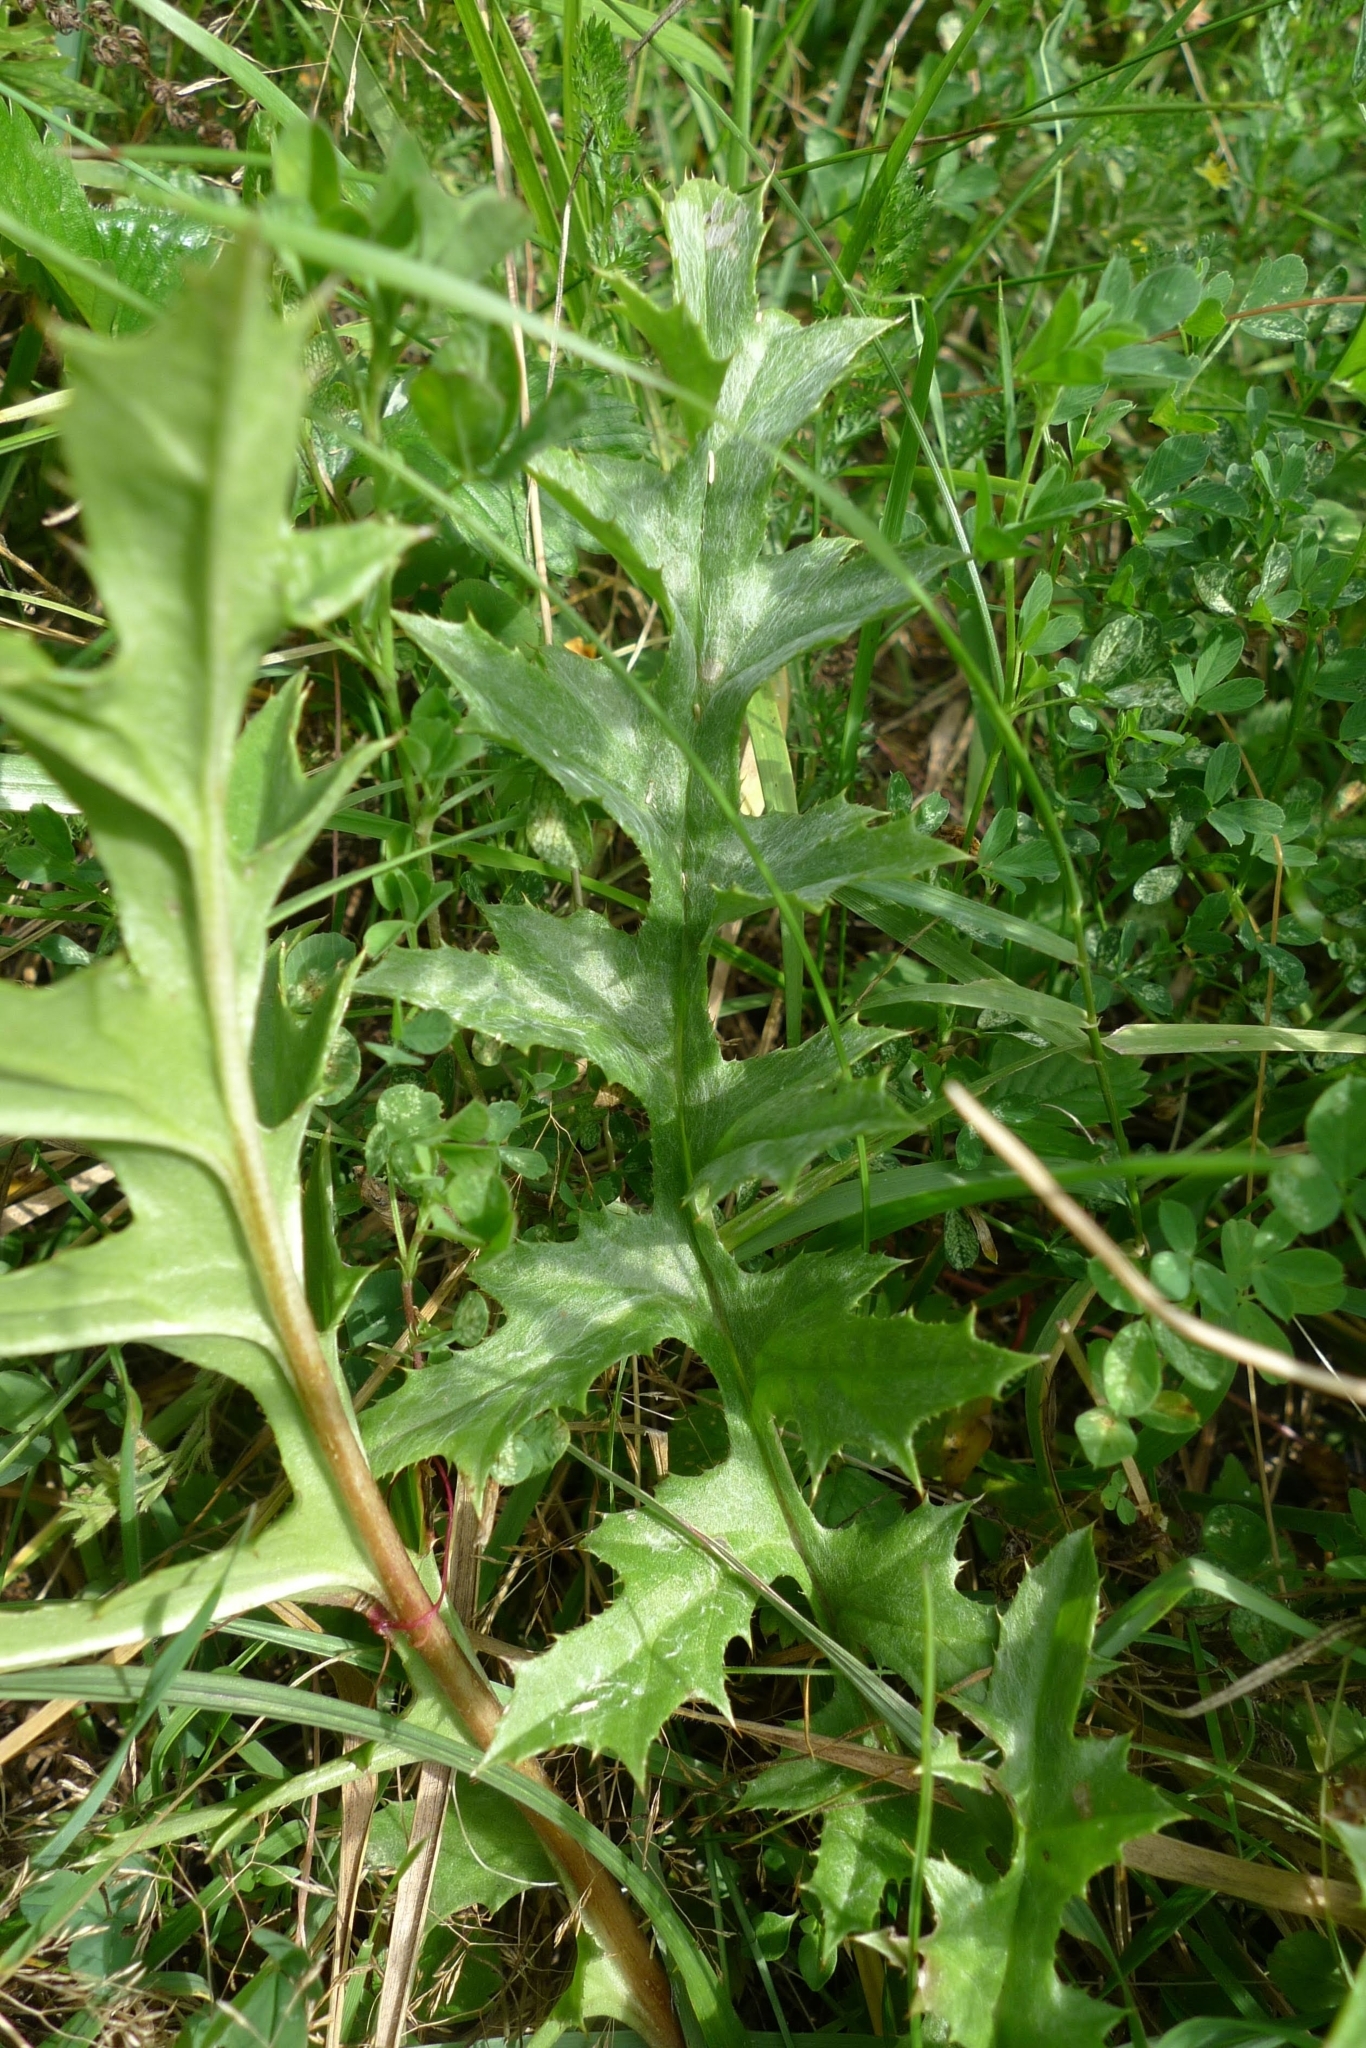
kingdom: Plantae
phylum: Tracheophyta
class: Magnoliopsida
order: Asterales
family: Asteraceae
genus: Carlina
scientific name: Carlina acaulis
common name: Stemless carline thistle
